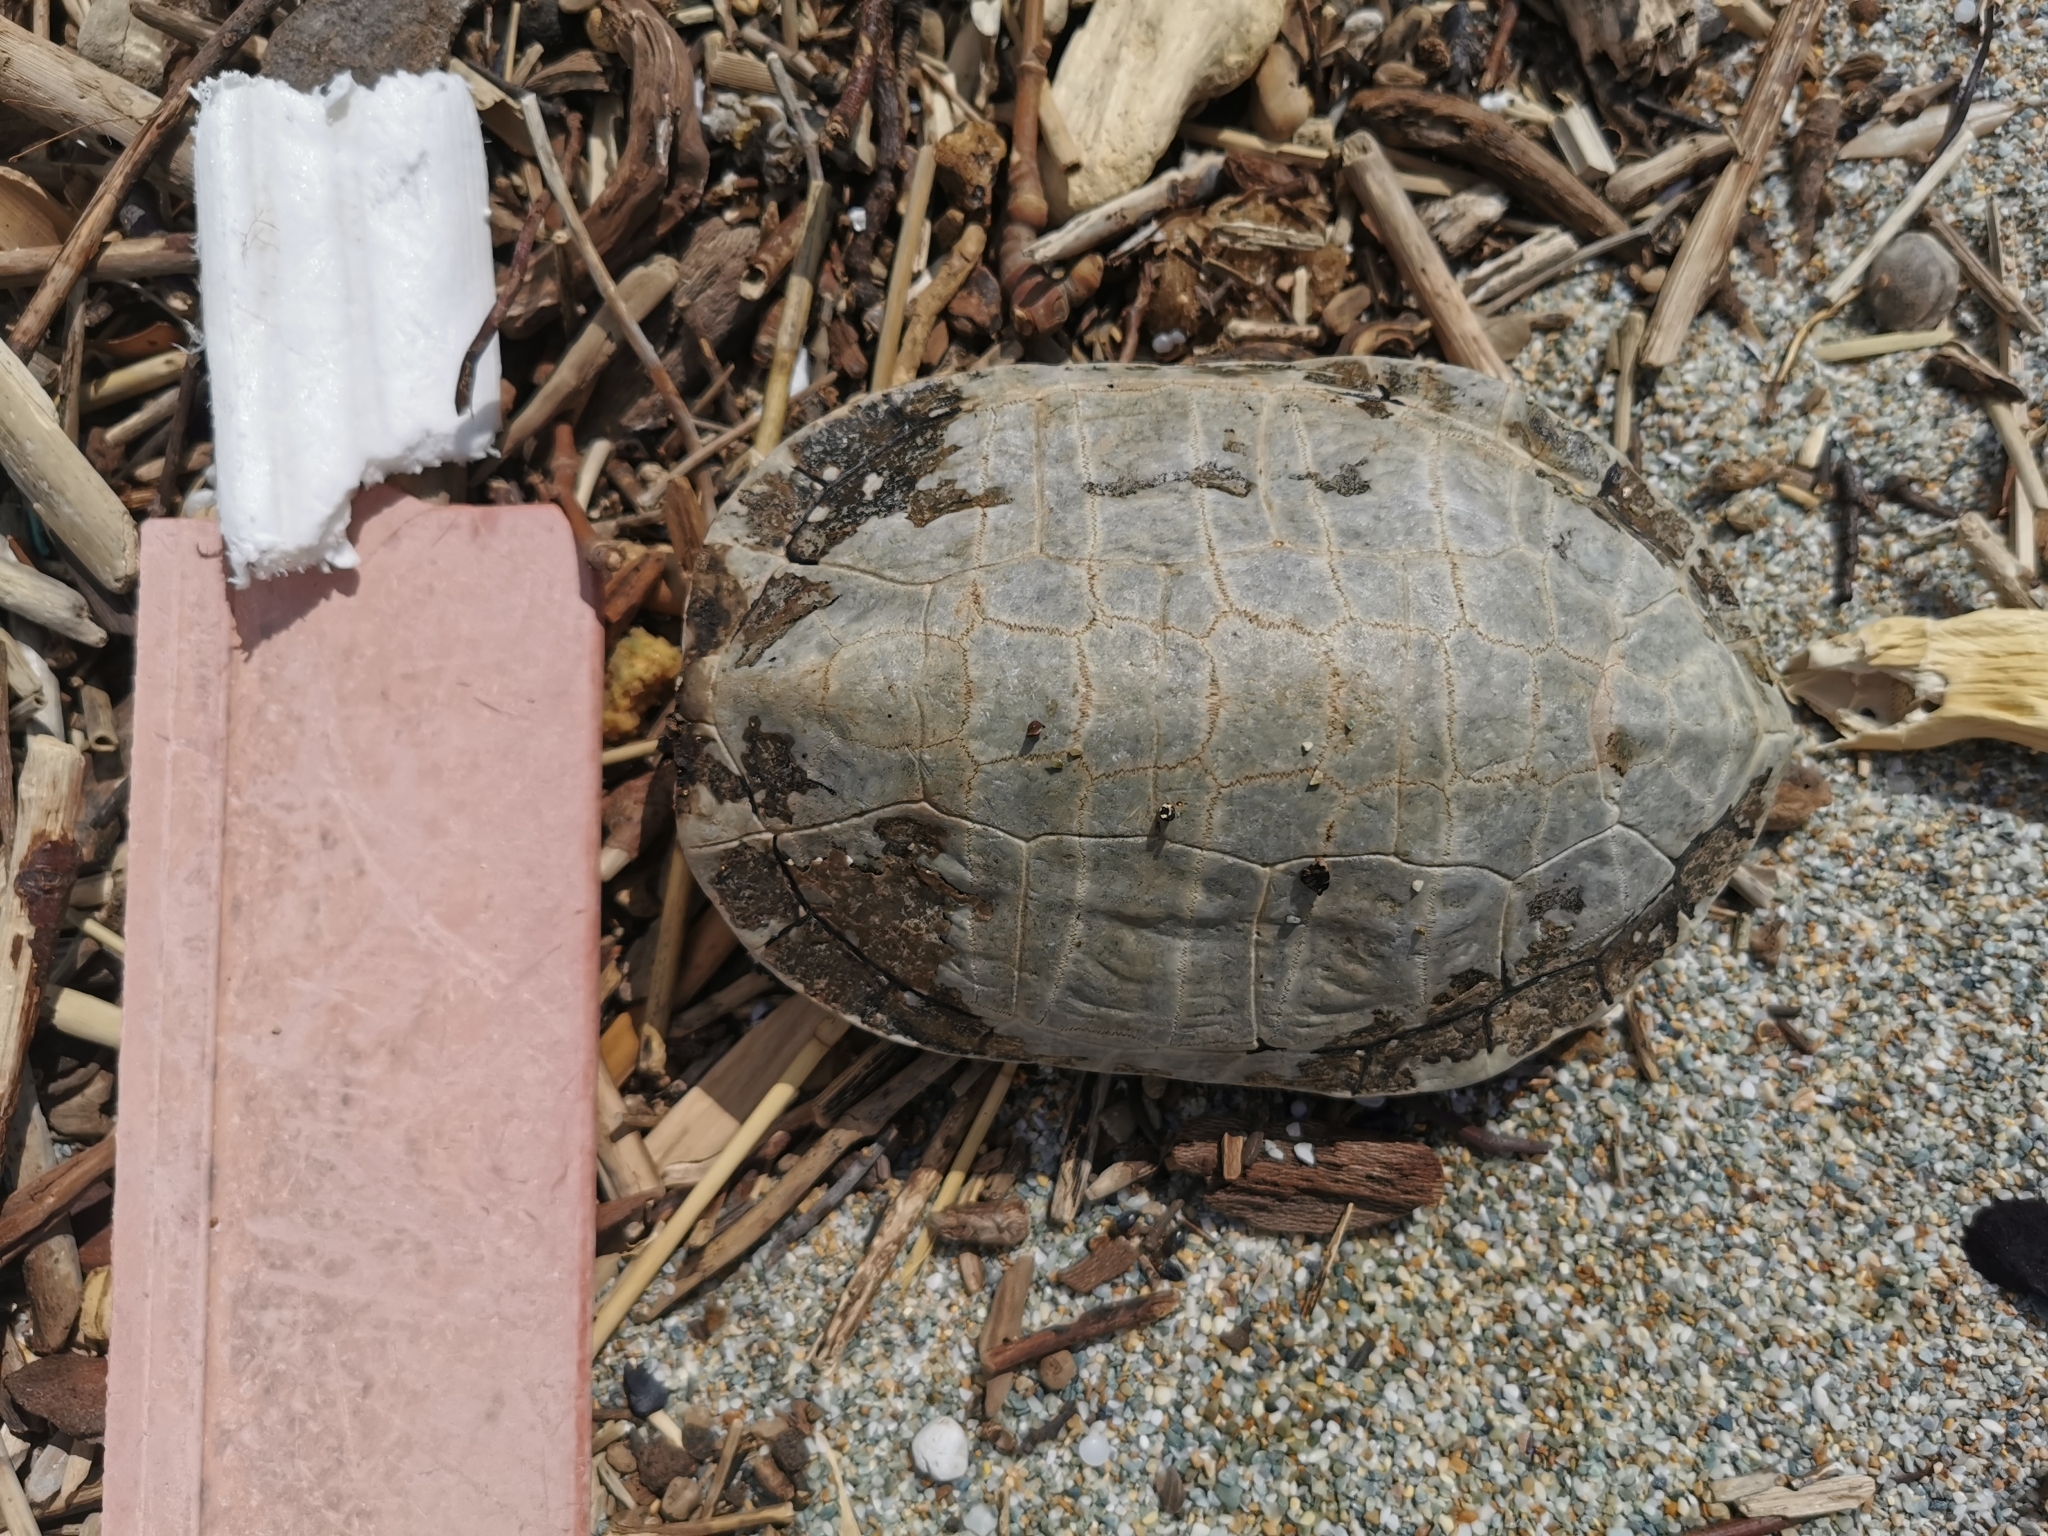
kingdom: Animalia
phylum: Chordata
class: Testudines
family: Geoemydidae
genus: Mauremys
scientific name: Mauremys rivulata
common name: Western caspian turtle
